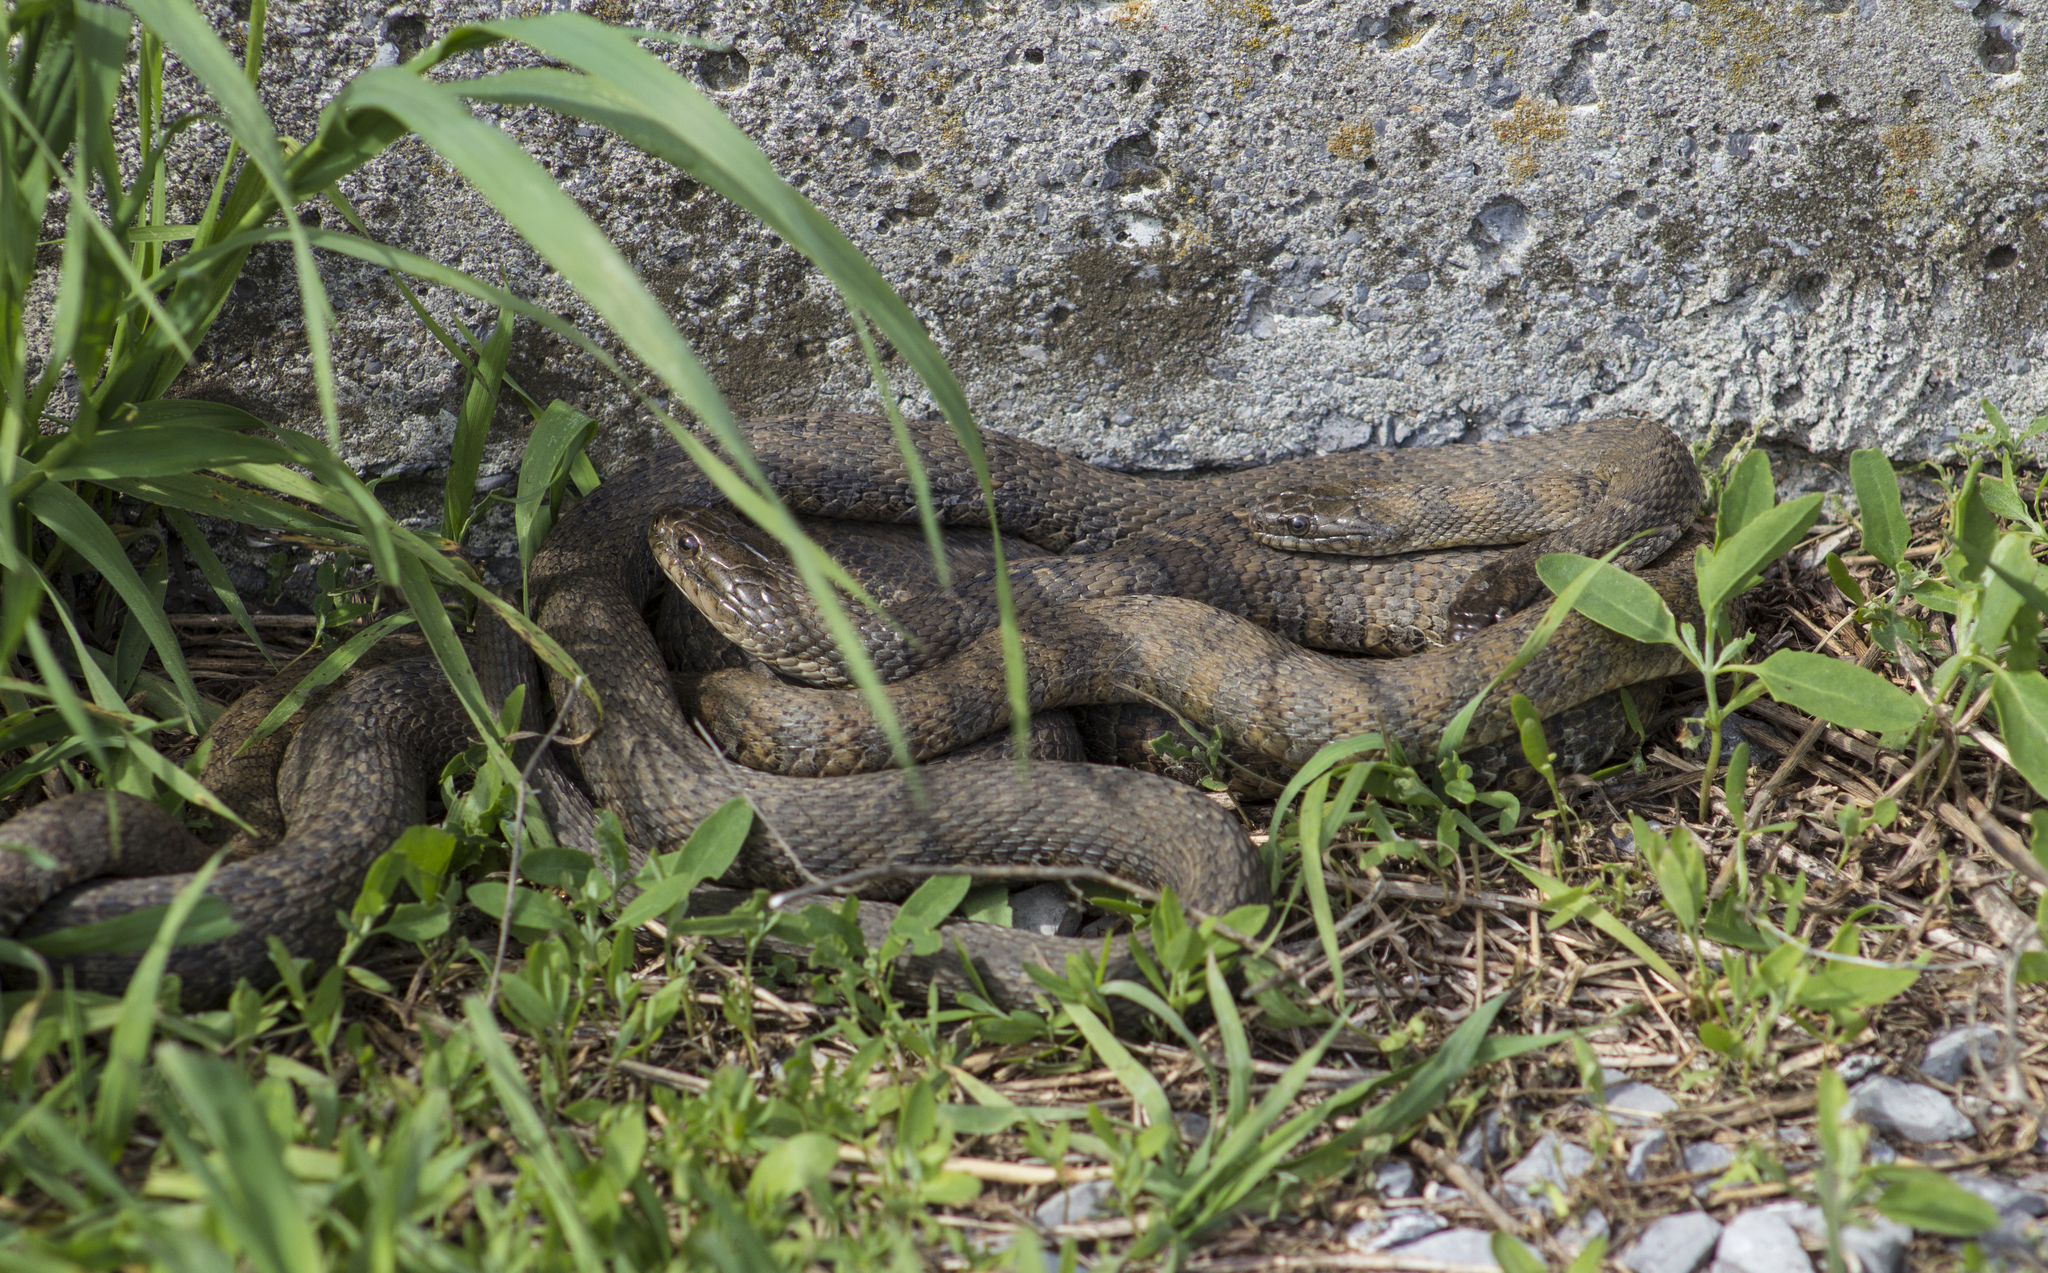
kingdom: Animalia
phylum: Chordata
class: Squamata
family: Colubridae
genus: Nerodia
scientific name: Nerodia sipedon
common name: Northern water snake
